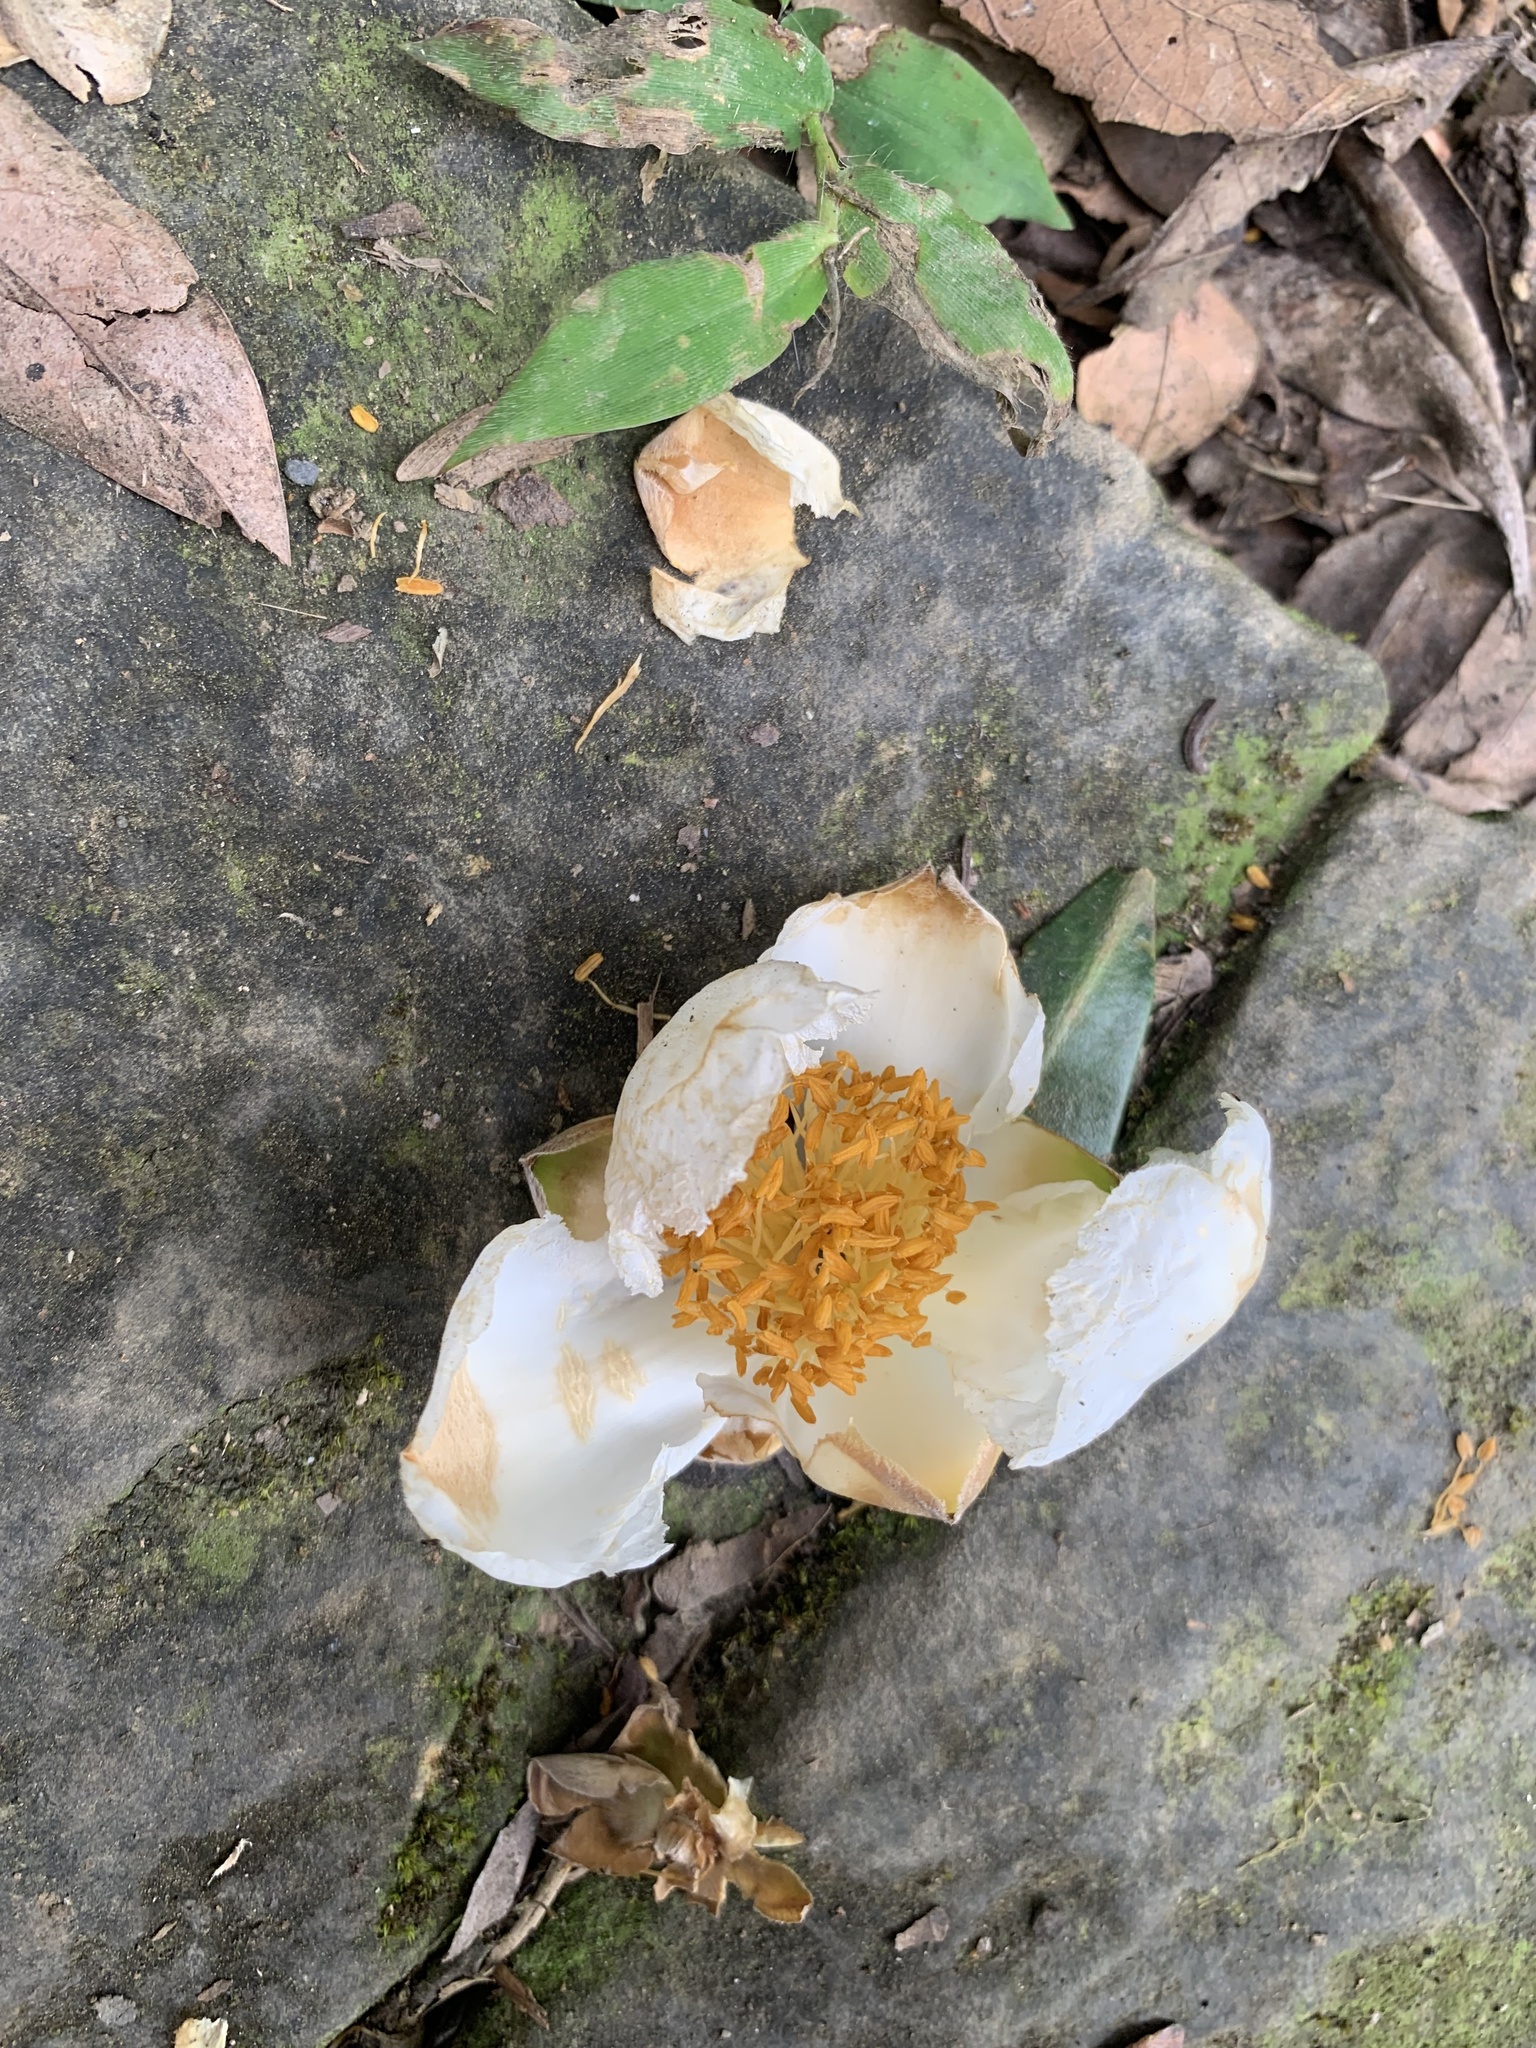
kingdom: Plantae
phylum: Tracheophyta
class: Magnoliopsida
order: Ericales
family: Theaceae
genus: Polyspora
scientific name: Polyspora axillaris
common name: Fried egg tree
